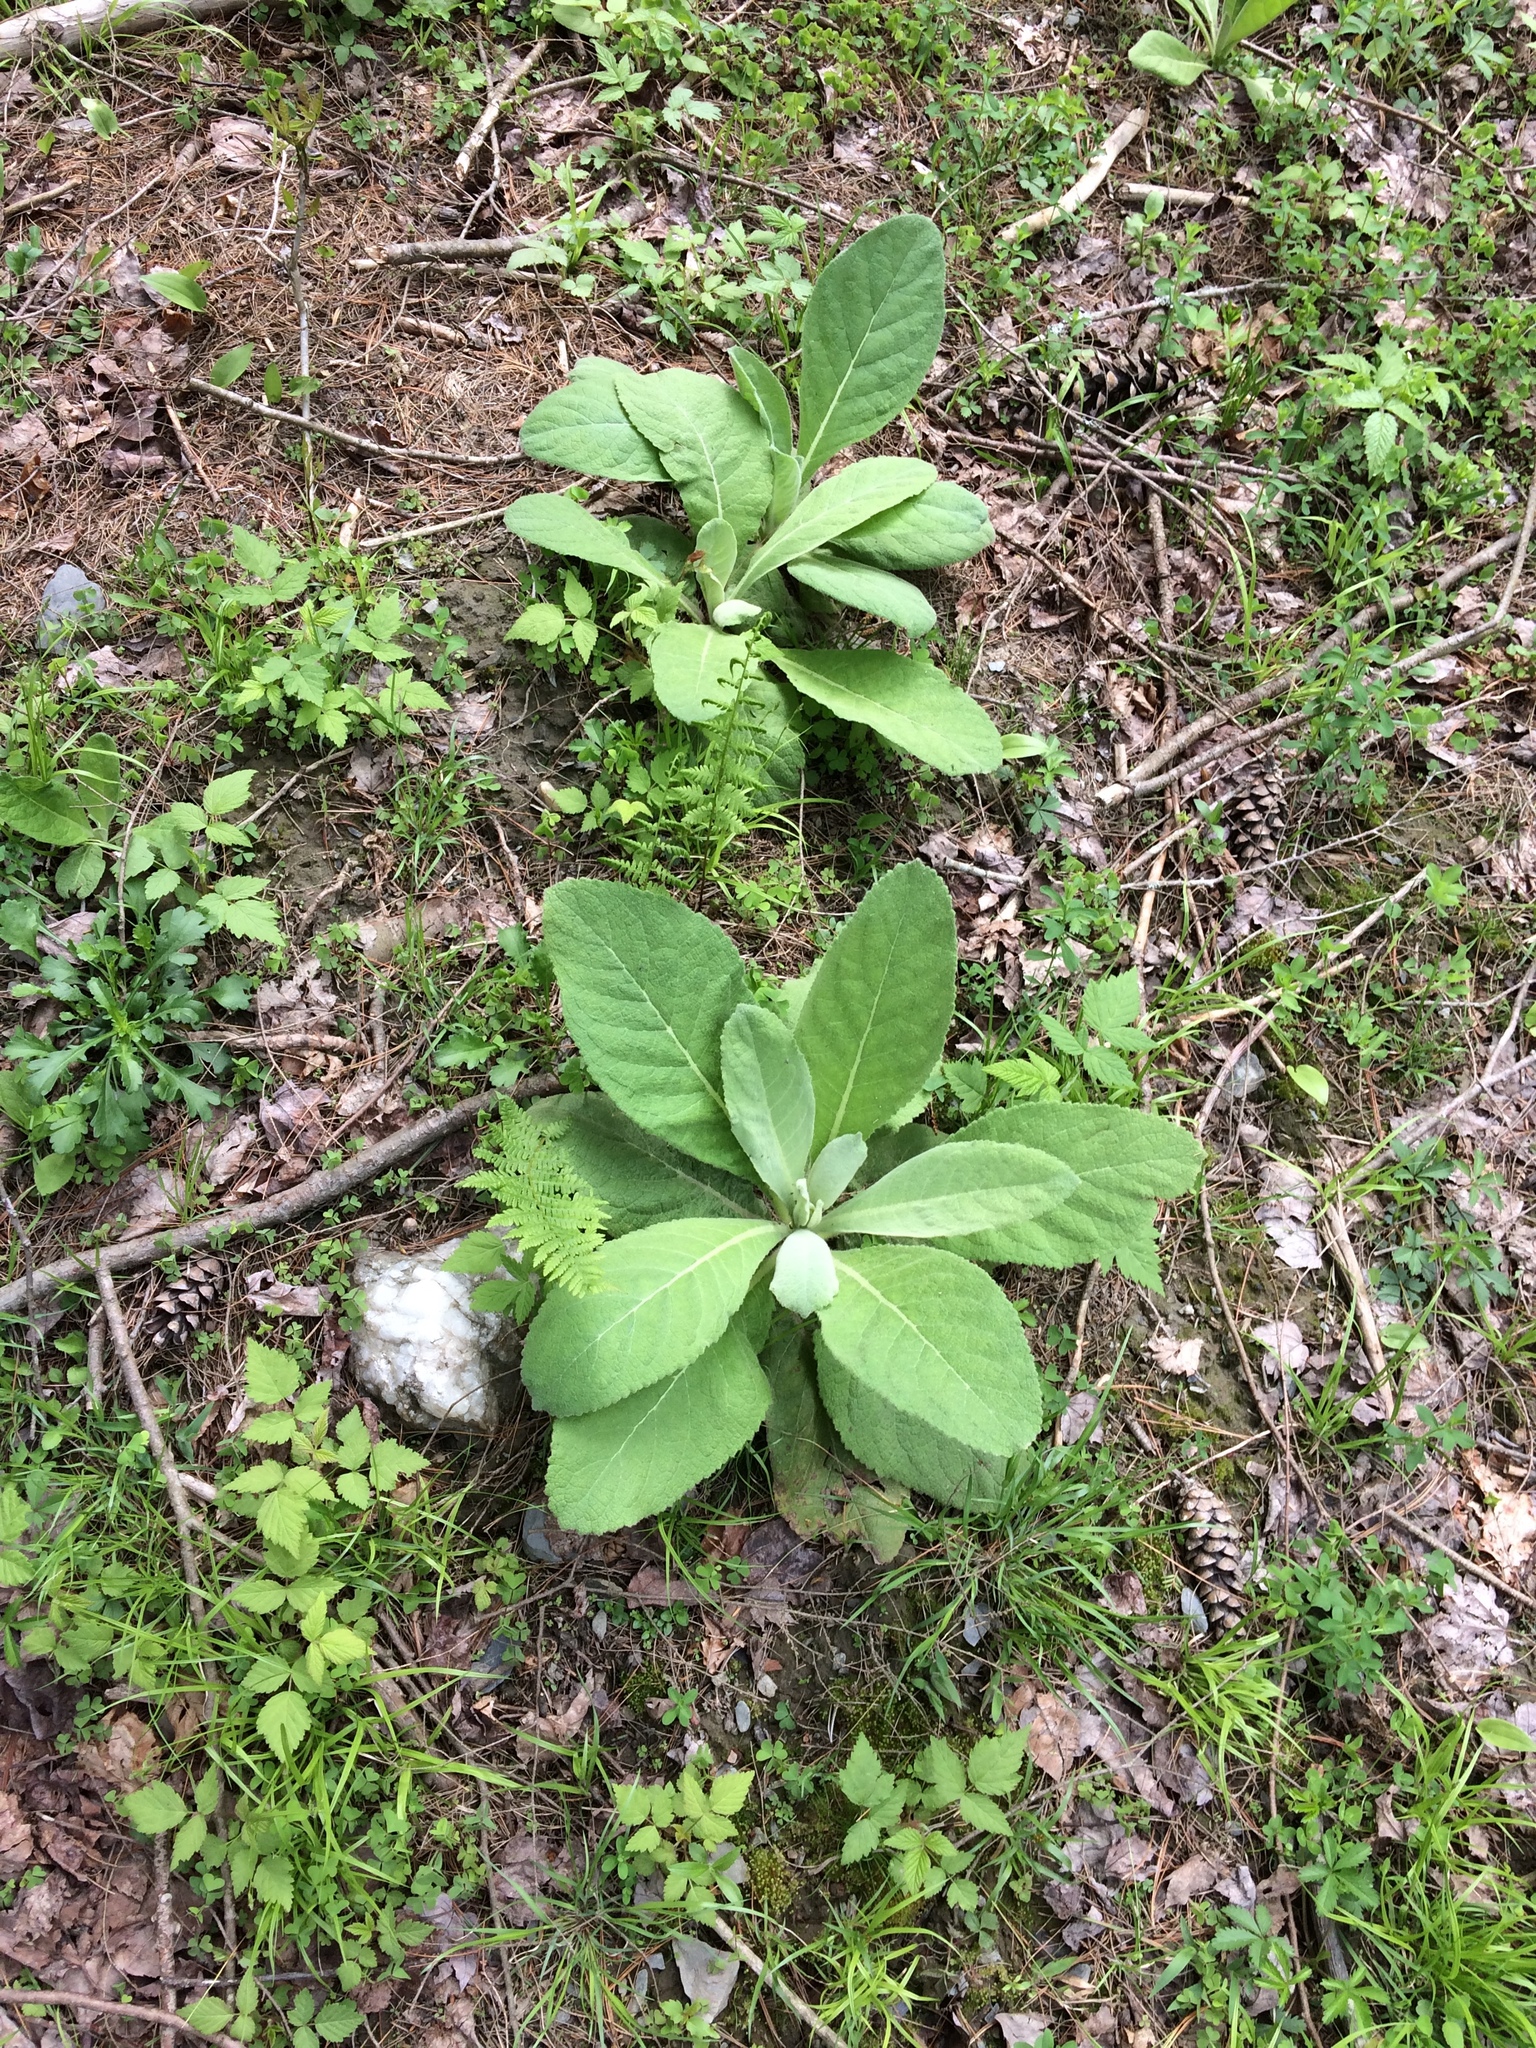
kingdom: Plantae
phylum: Tracheophyta
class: Magnoliopsida
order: Lamiales
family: Scrophulariaceae
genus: Verbascum
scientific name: Verbascum thapsus
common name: Common mullein
